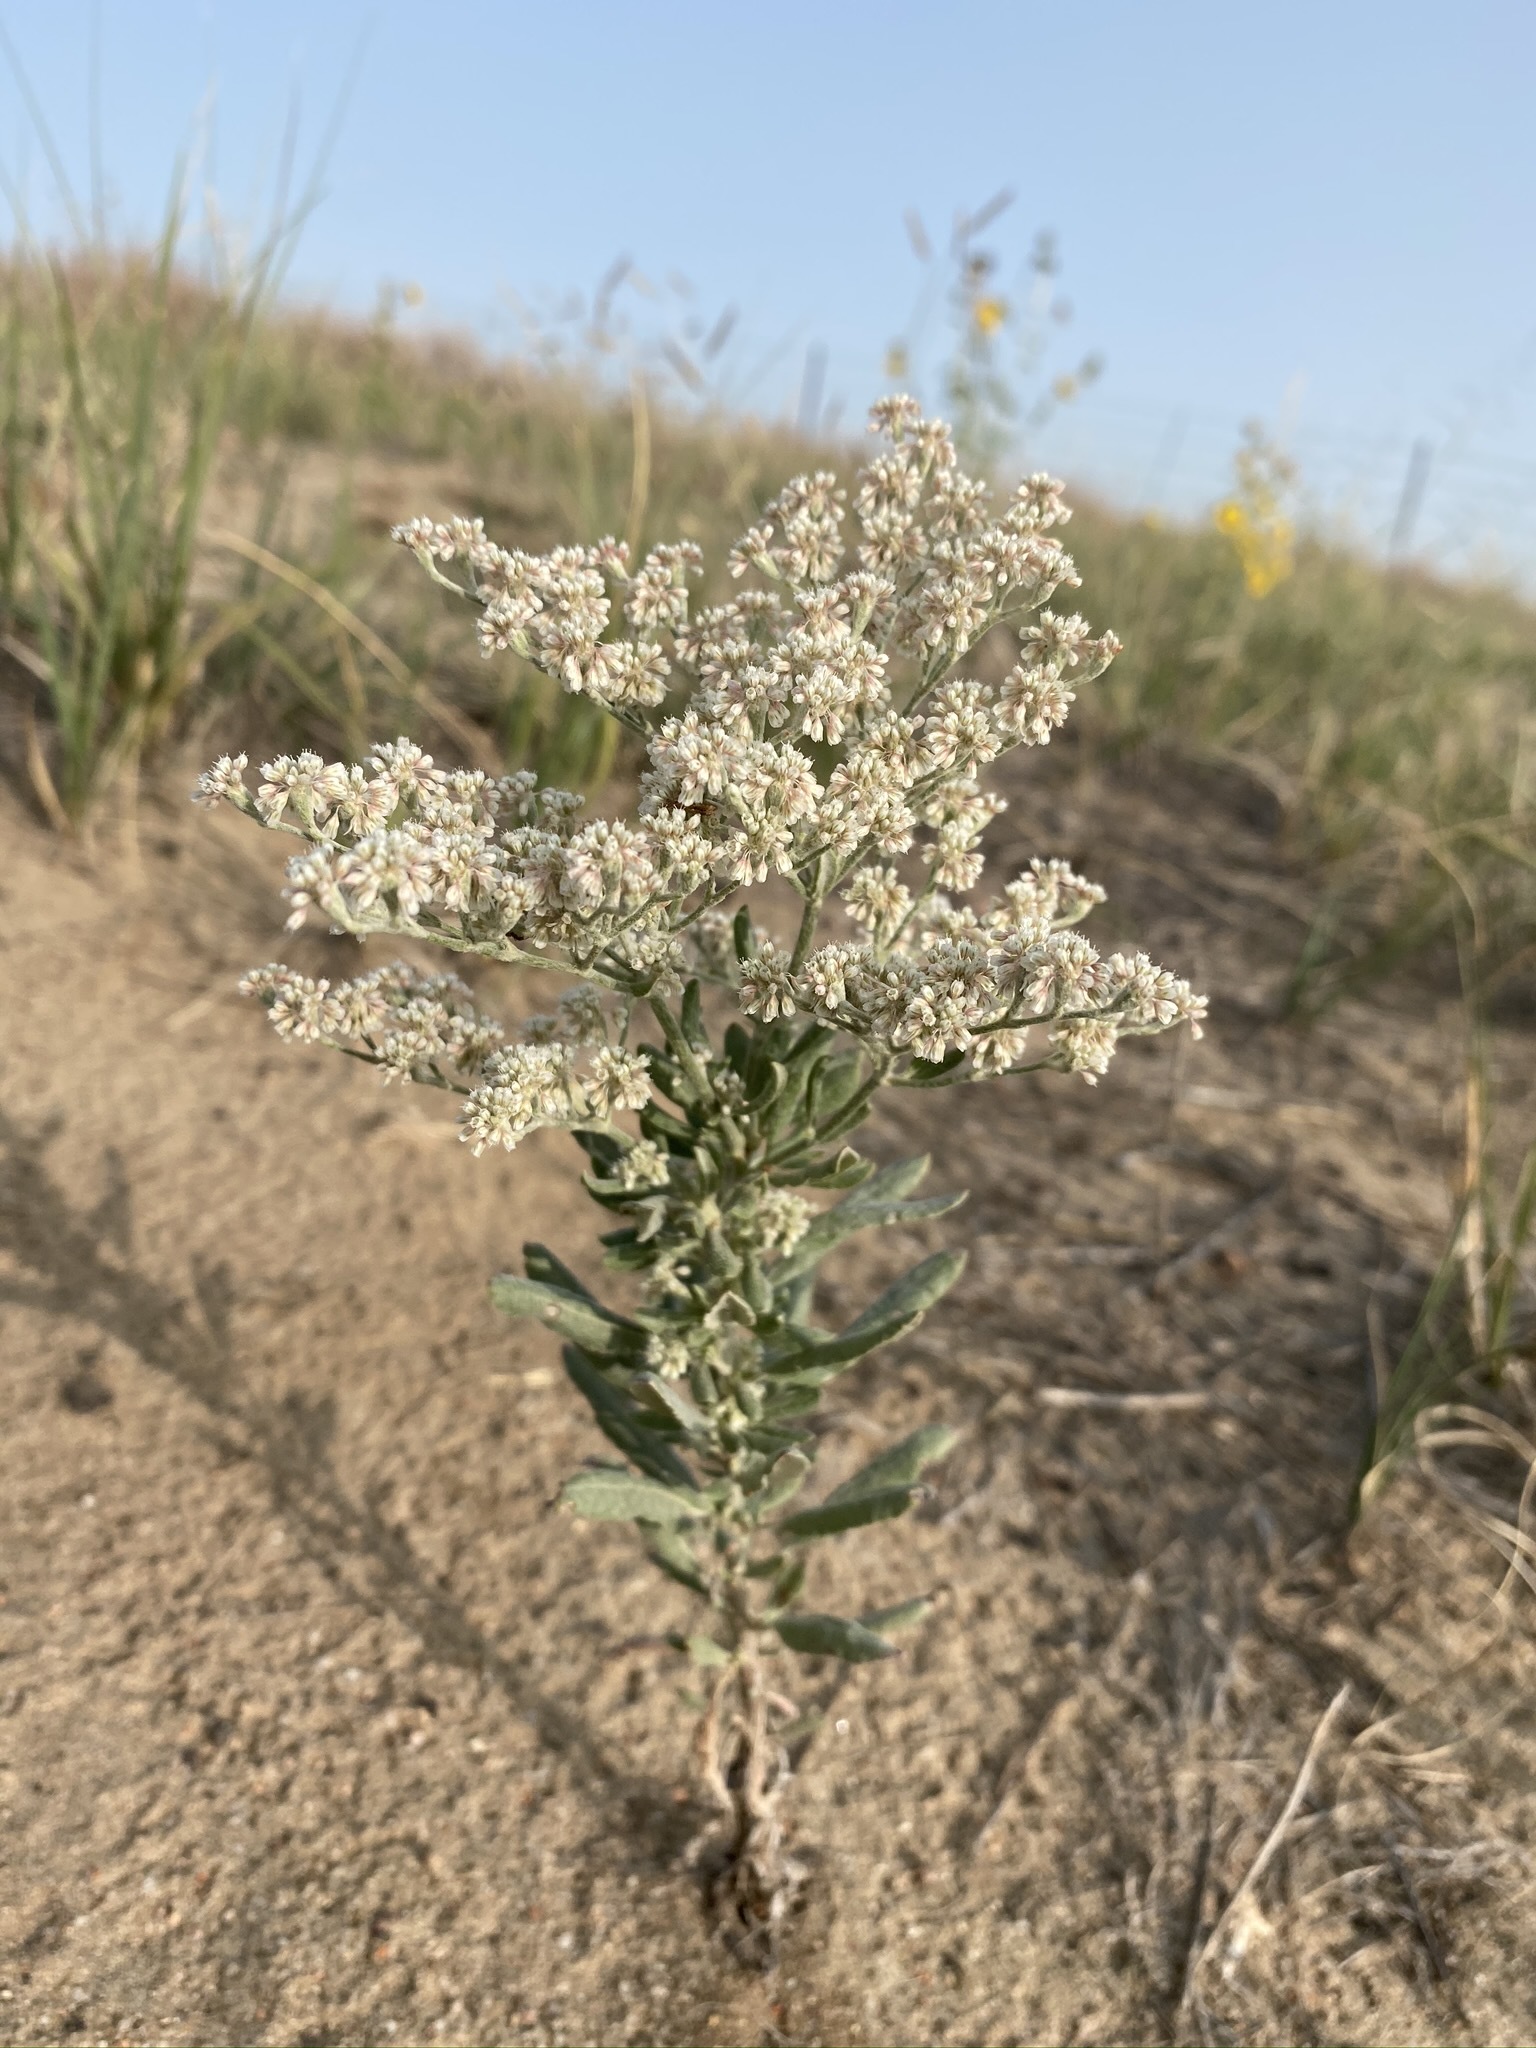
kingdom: Plantae
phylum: Tracheophyta
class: Magnoliopsida
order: Caryophyllales
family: Polygonaceae
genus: Eriogonum
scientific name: Eriogonum annuum
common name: Annual wild buckwheat
